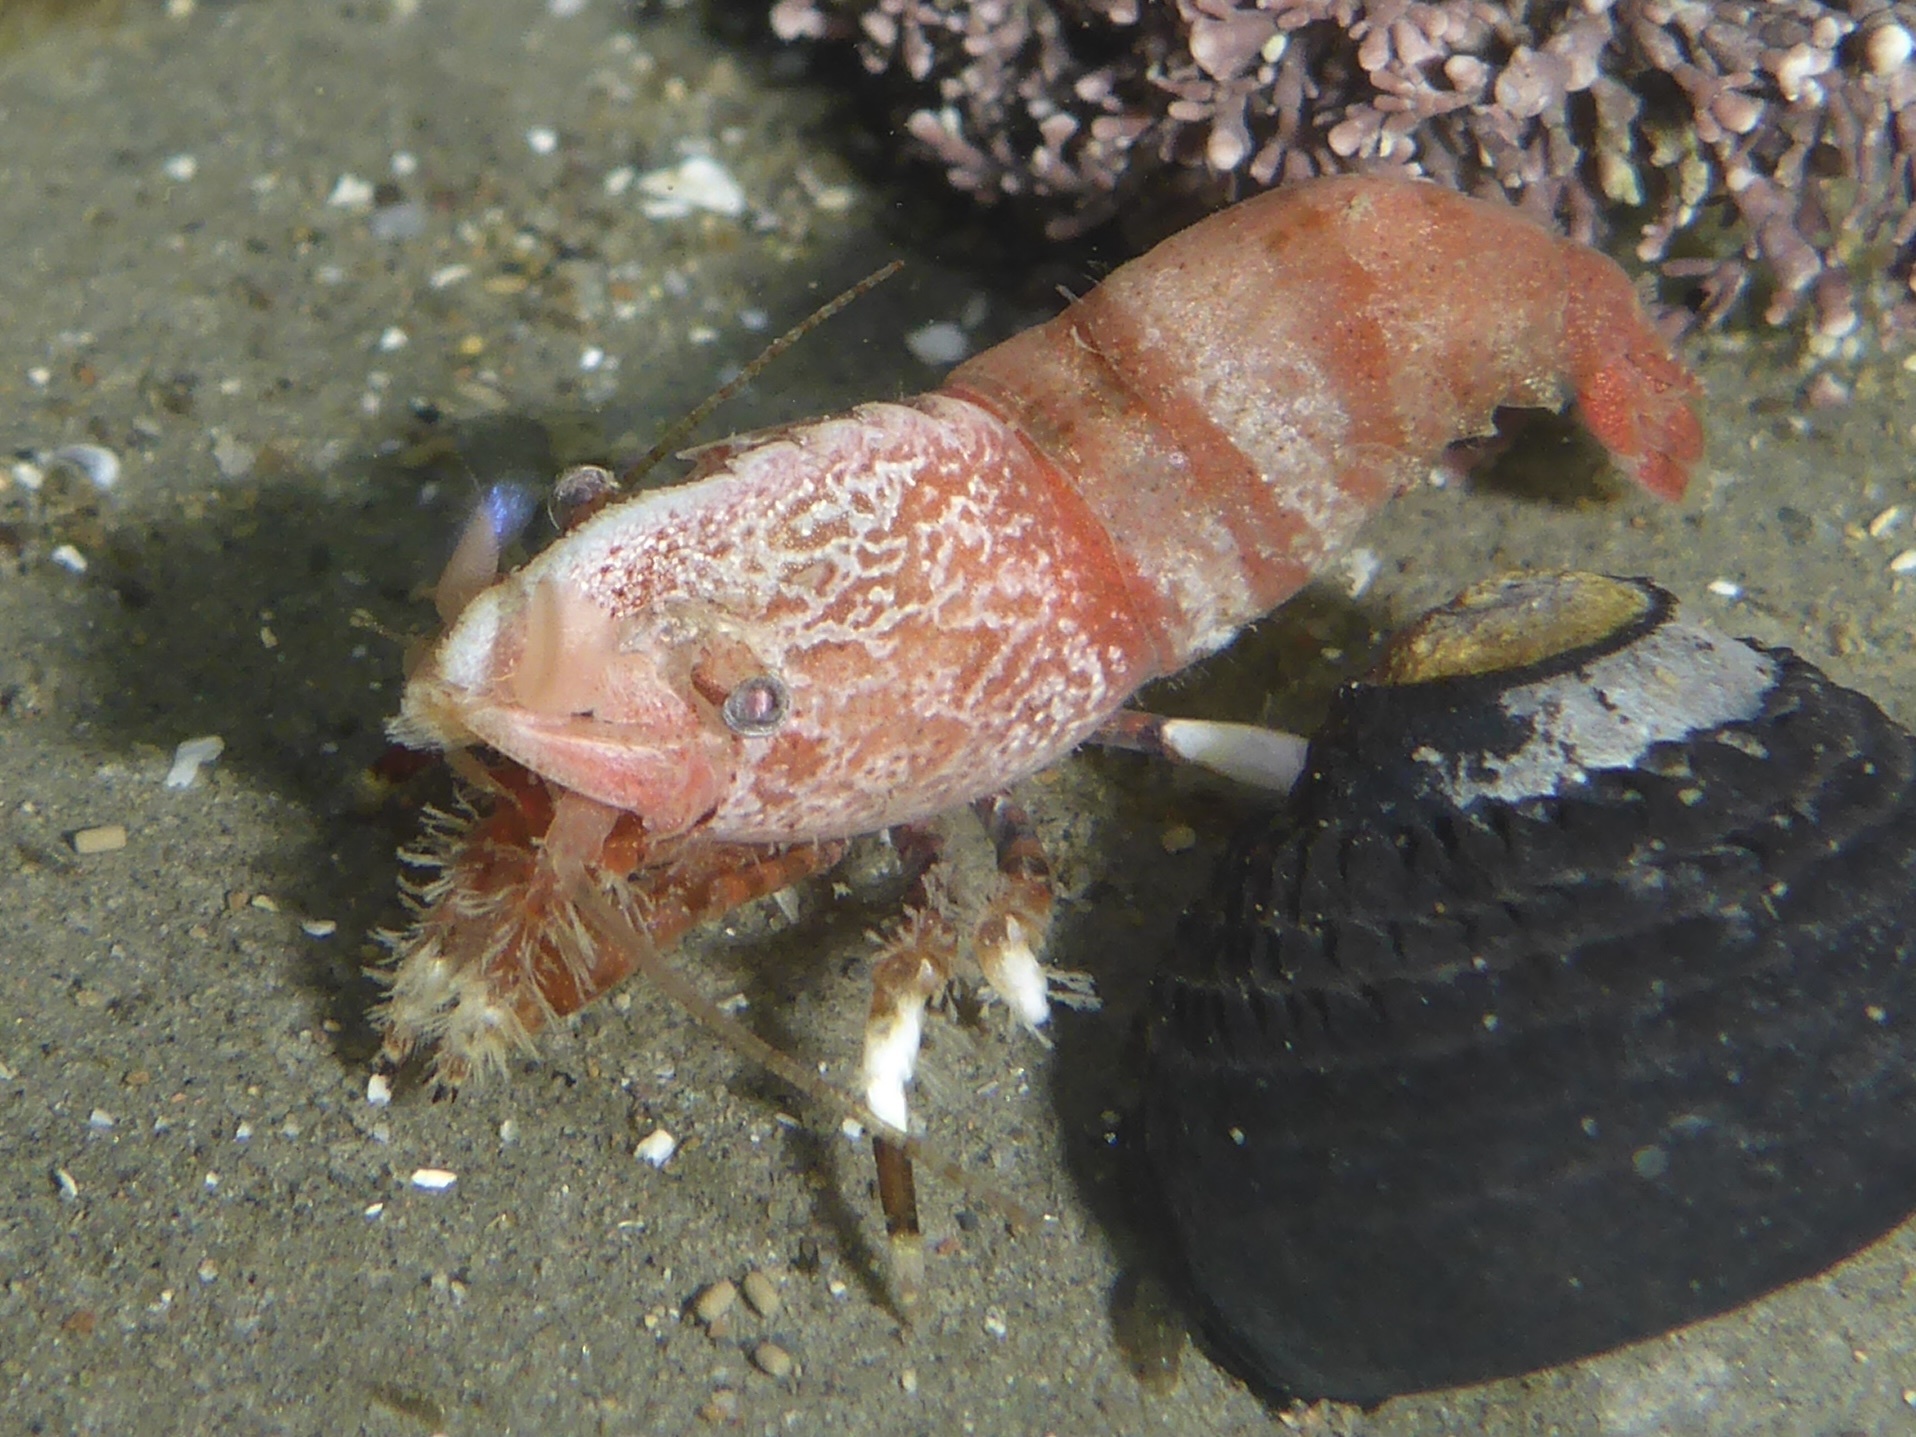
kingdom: Animalia
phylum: Arthropoda
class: Malacostraca
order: Decapoda
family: Thoridae
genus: Spirontocaris
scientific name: Spirontocaris prionota
